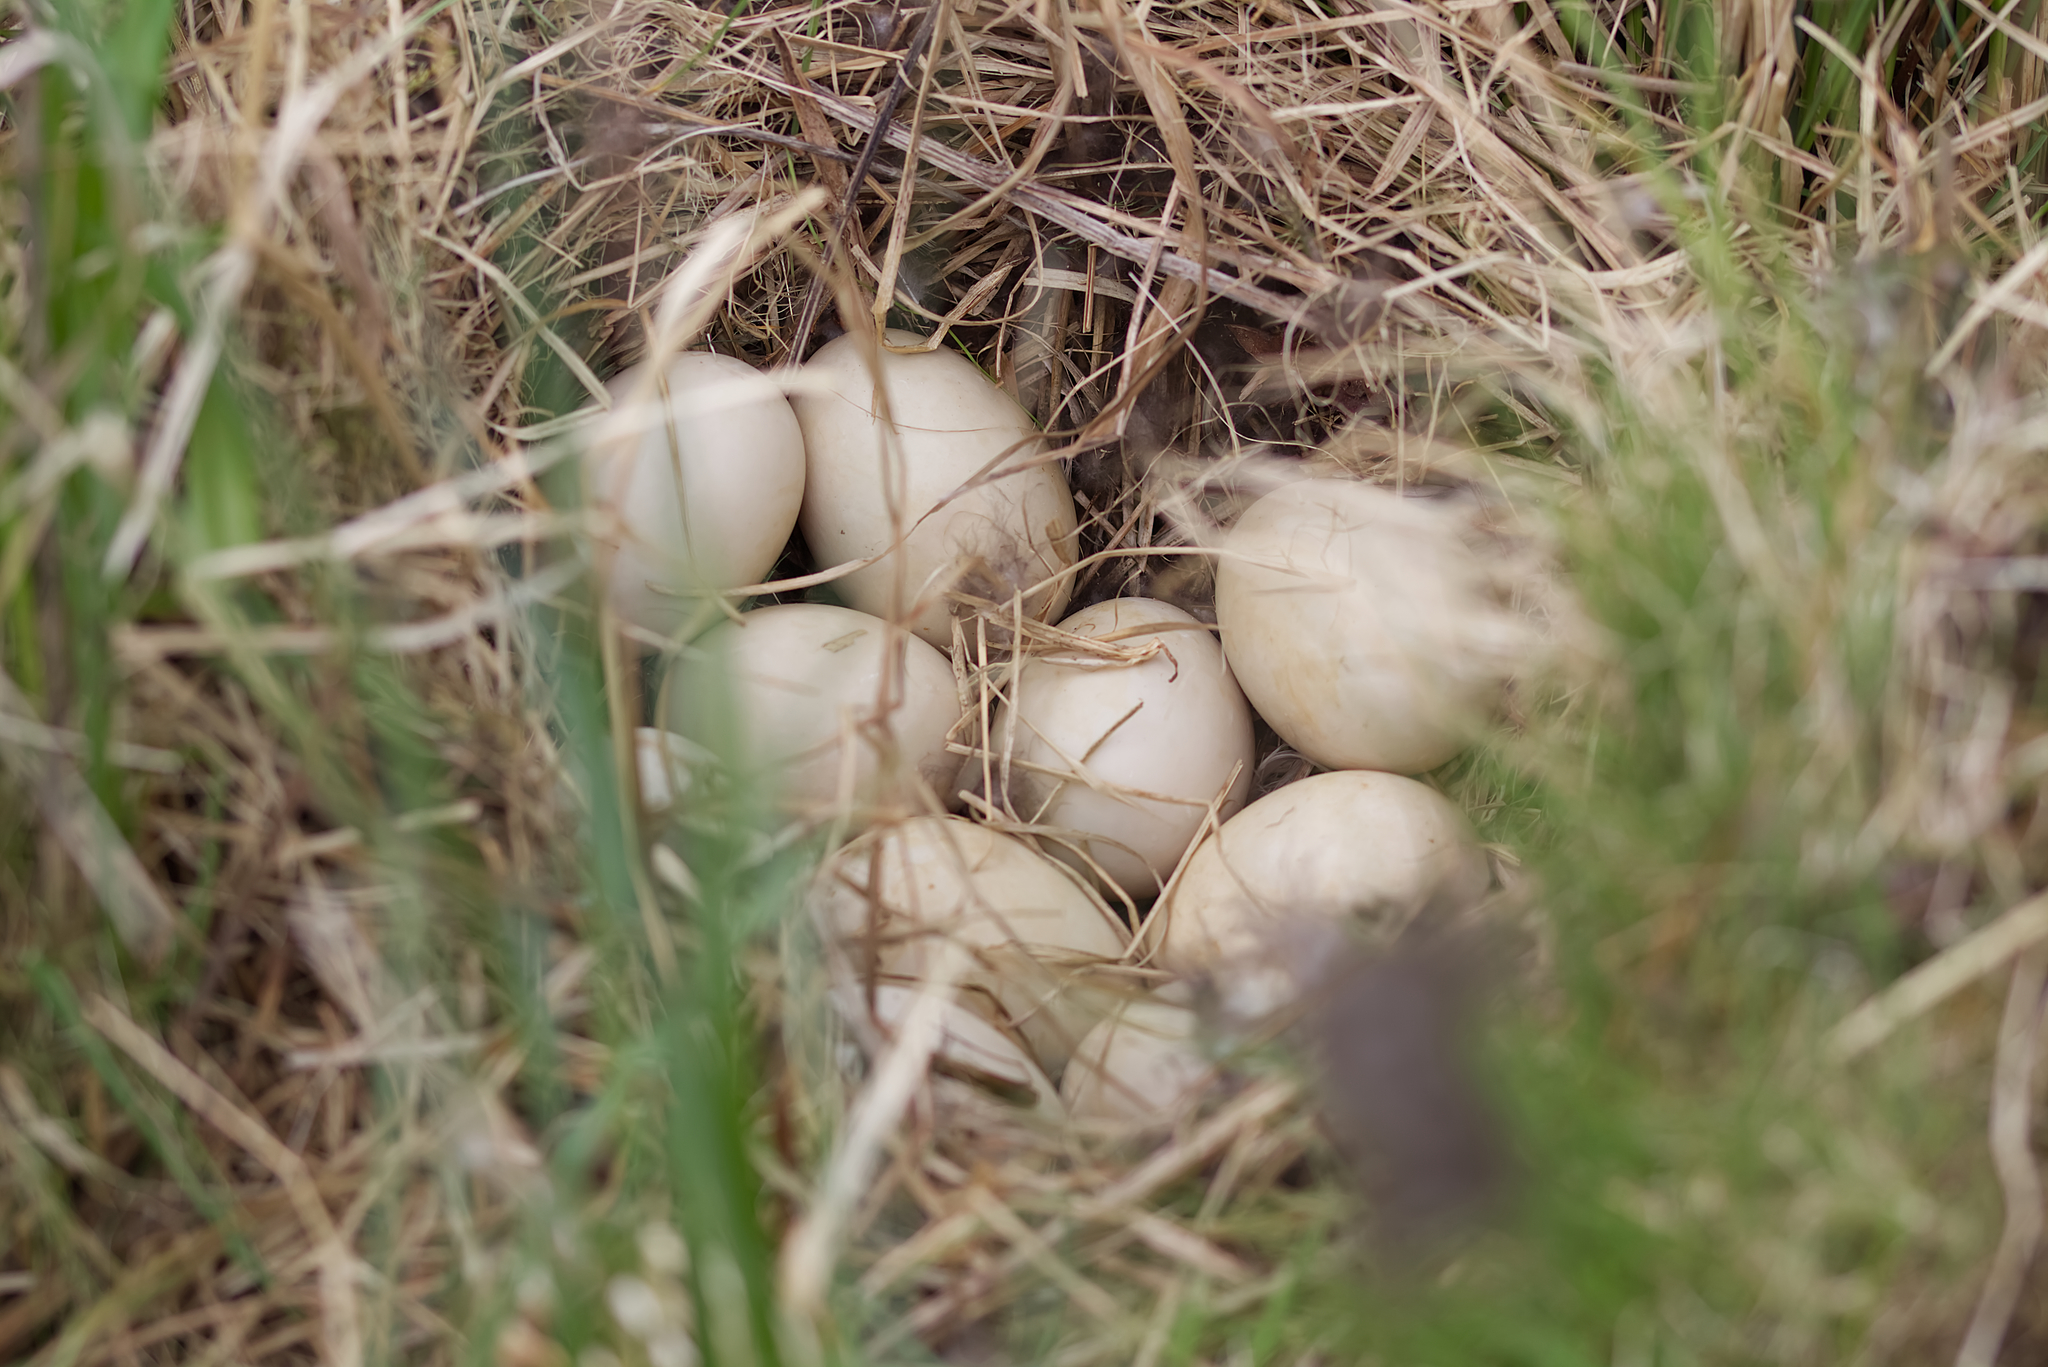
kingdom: Animalia
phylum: Chordata
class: Aves
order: Anseriformes
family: Anatidae
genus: Anas
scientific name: Anas platyrhynchos
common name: Mallard
